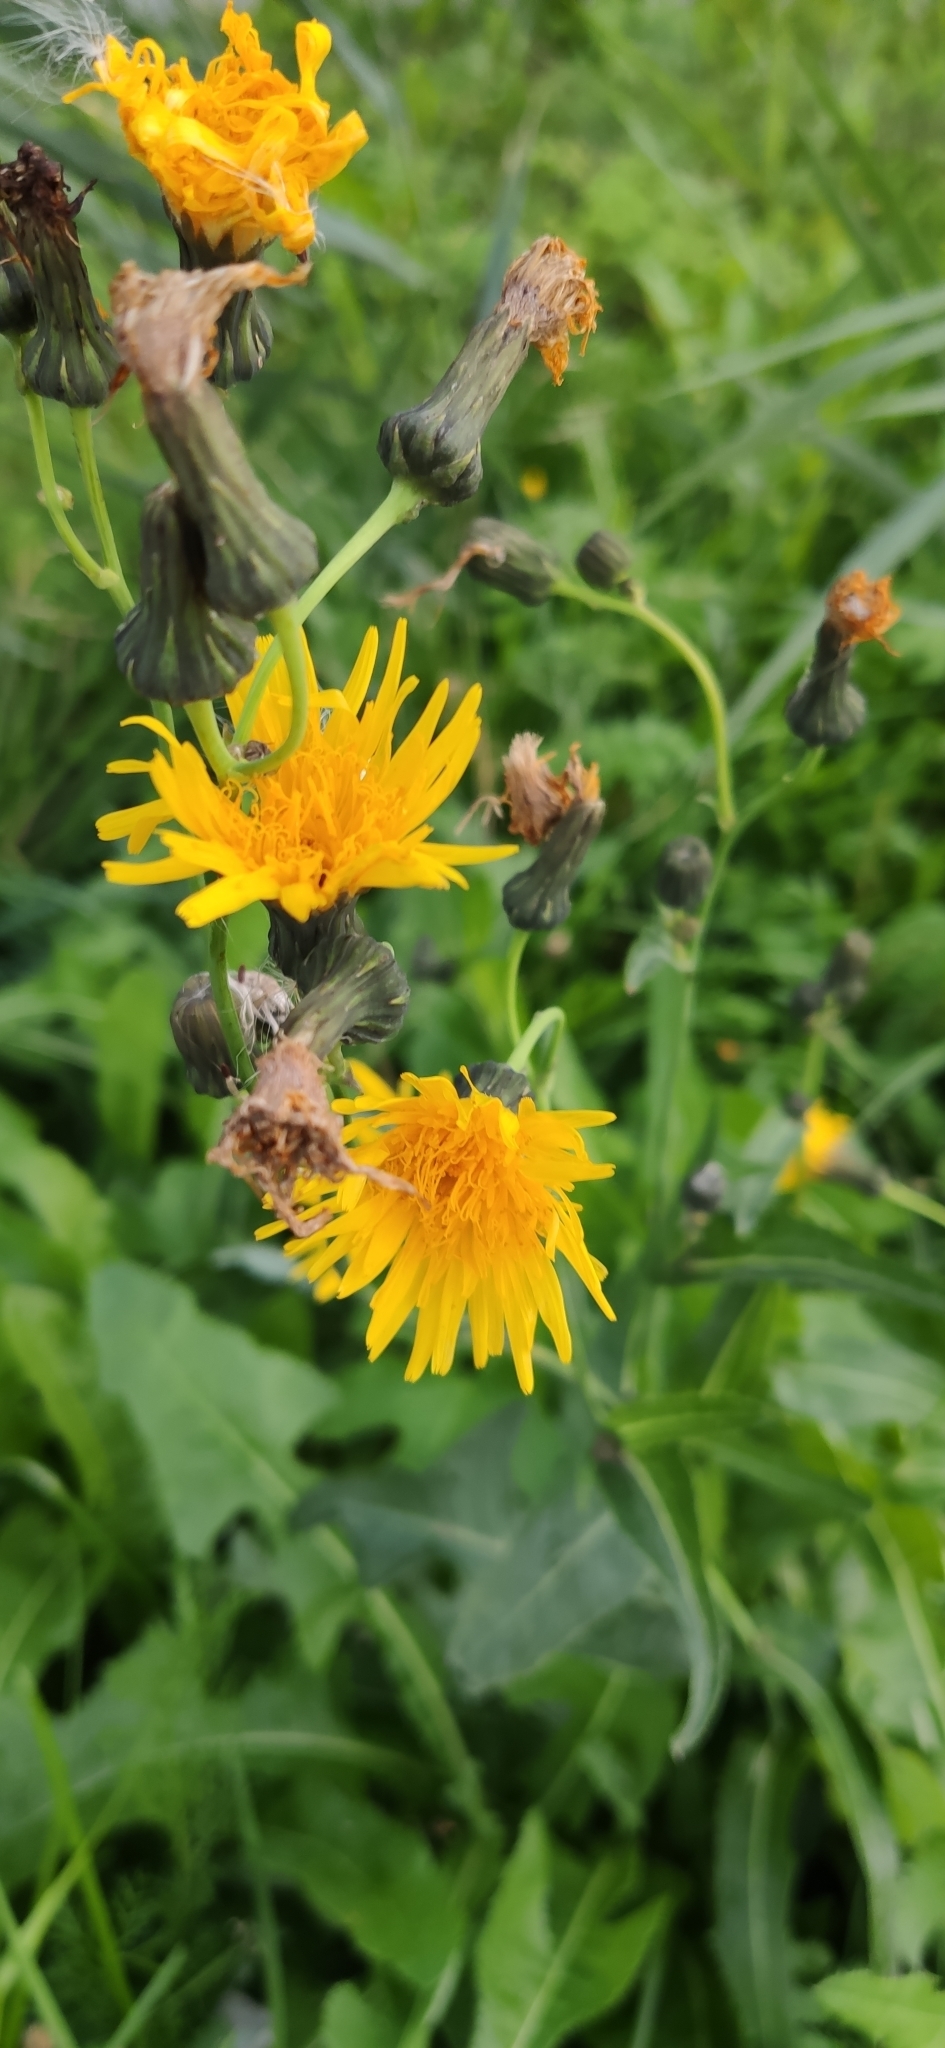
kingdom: Plantae
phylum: Tracheophyta
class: Magnoliopsida
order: Asterales
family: Asteraceae
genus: Sonchus
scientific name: Sonchus arvensis
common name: Perennial sow-thistle
